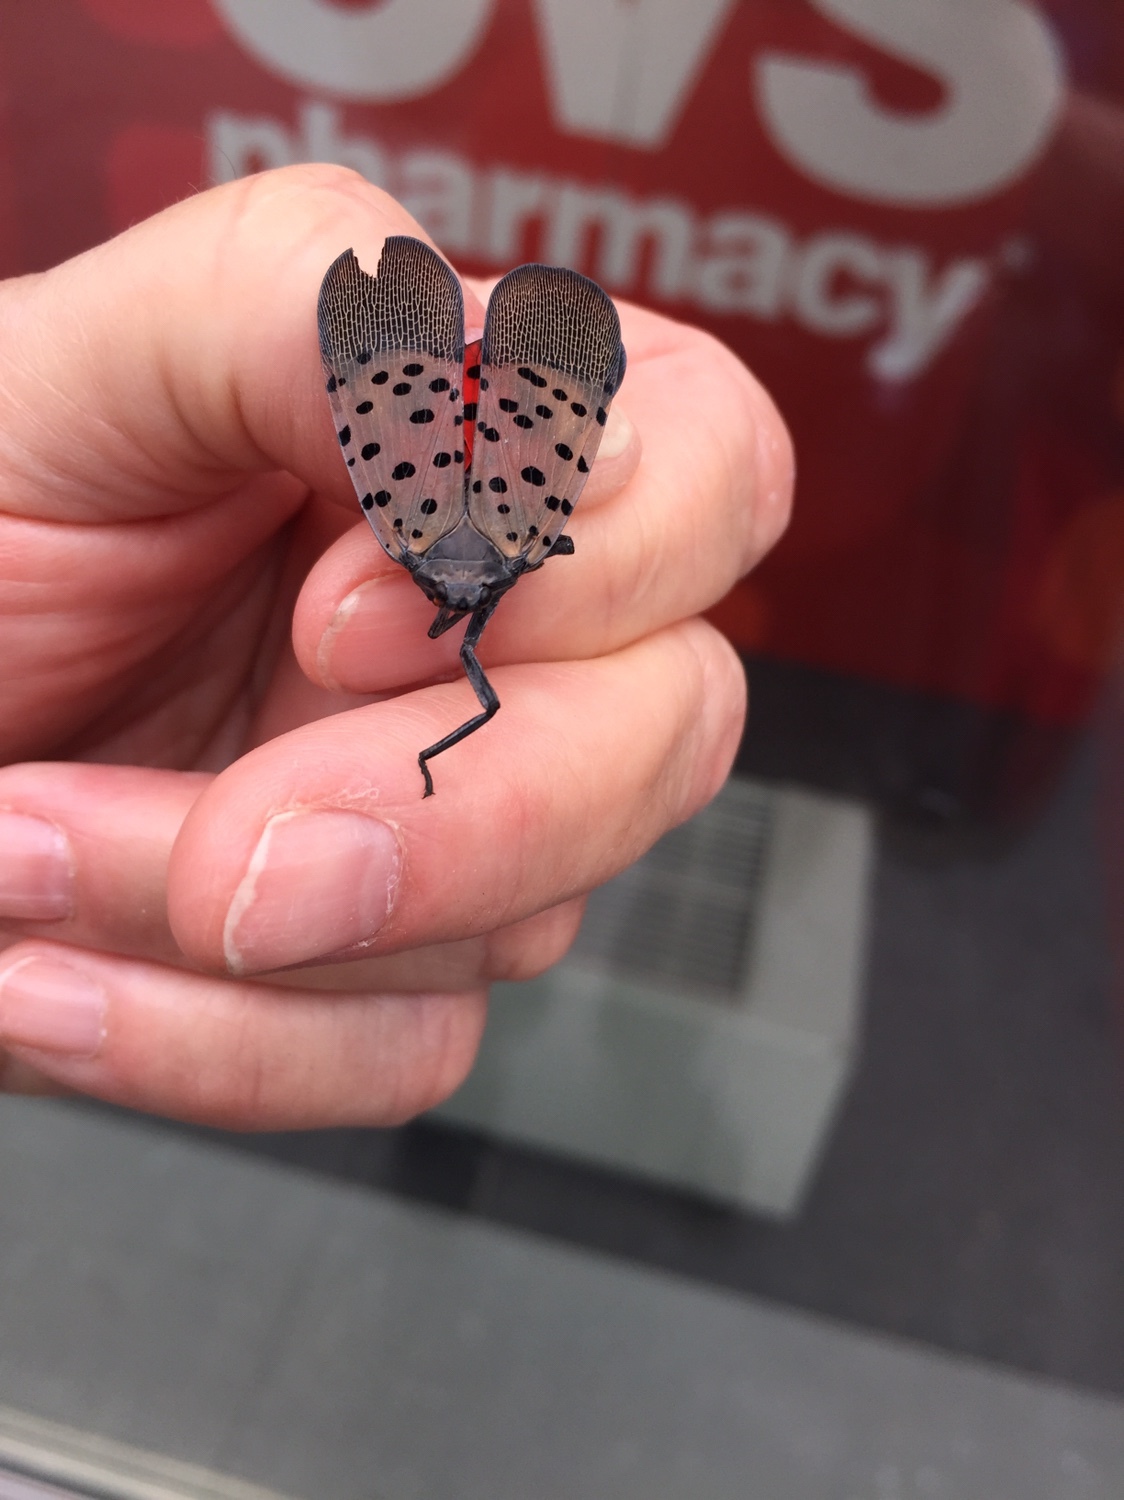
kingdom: Animalia
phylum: Arthropoda
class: Insecta
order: Hemiptera
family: Fulgoridae
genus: Lycorma
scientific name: Lycorma delicatula
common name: Spotted lanternfly
